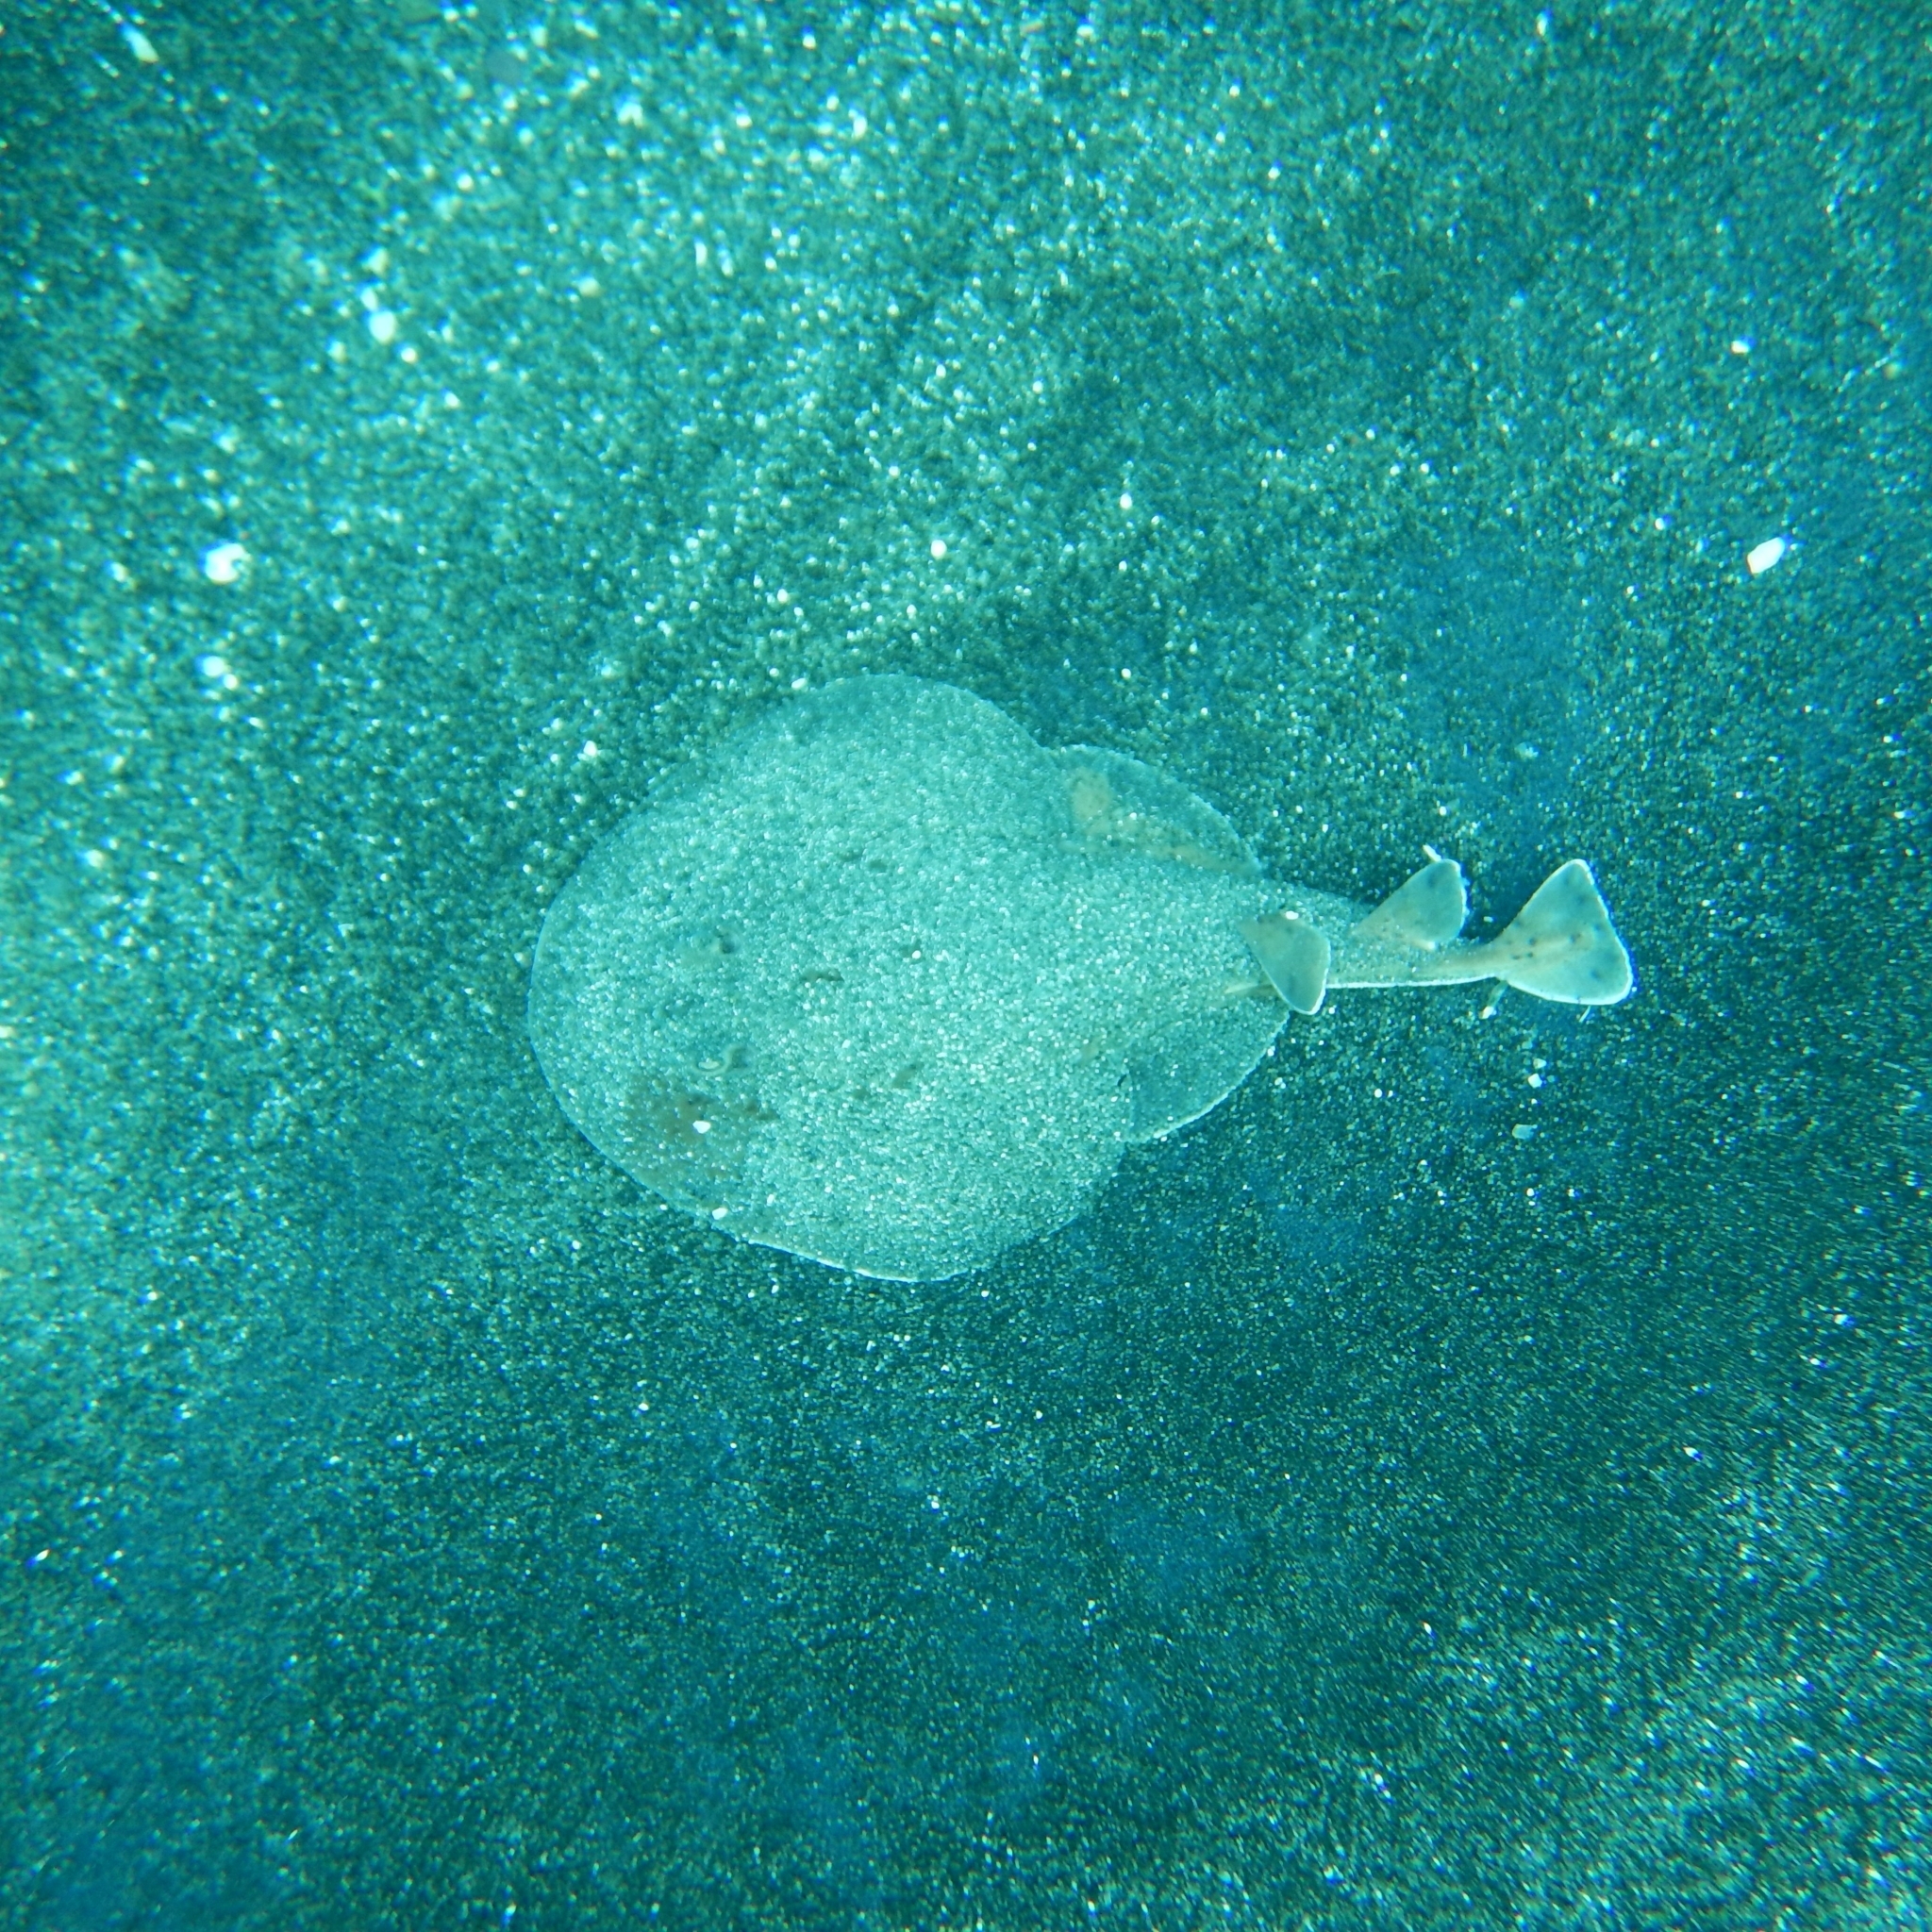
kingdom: Animalia
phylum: Chordata
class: Elasmobranchii
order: Torpediniformes
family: Narcinidae
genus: Narcine
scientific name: Narcine bancroftii
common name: Lesser electric ray
